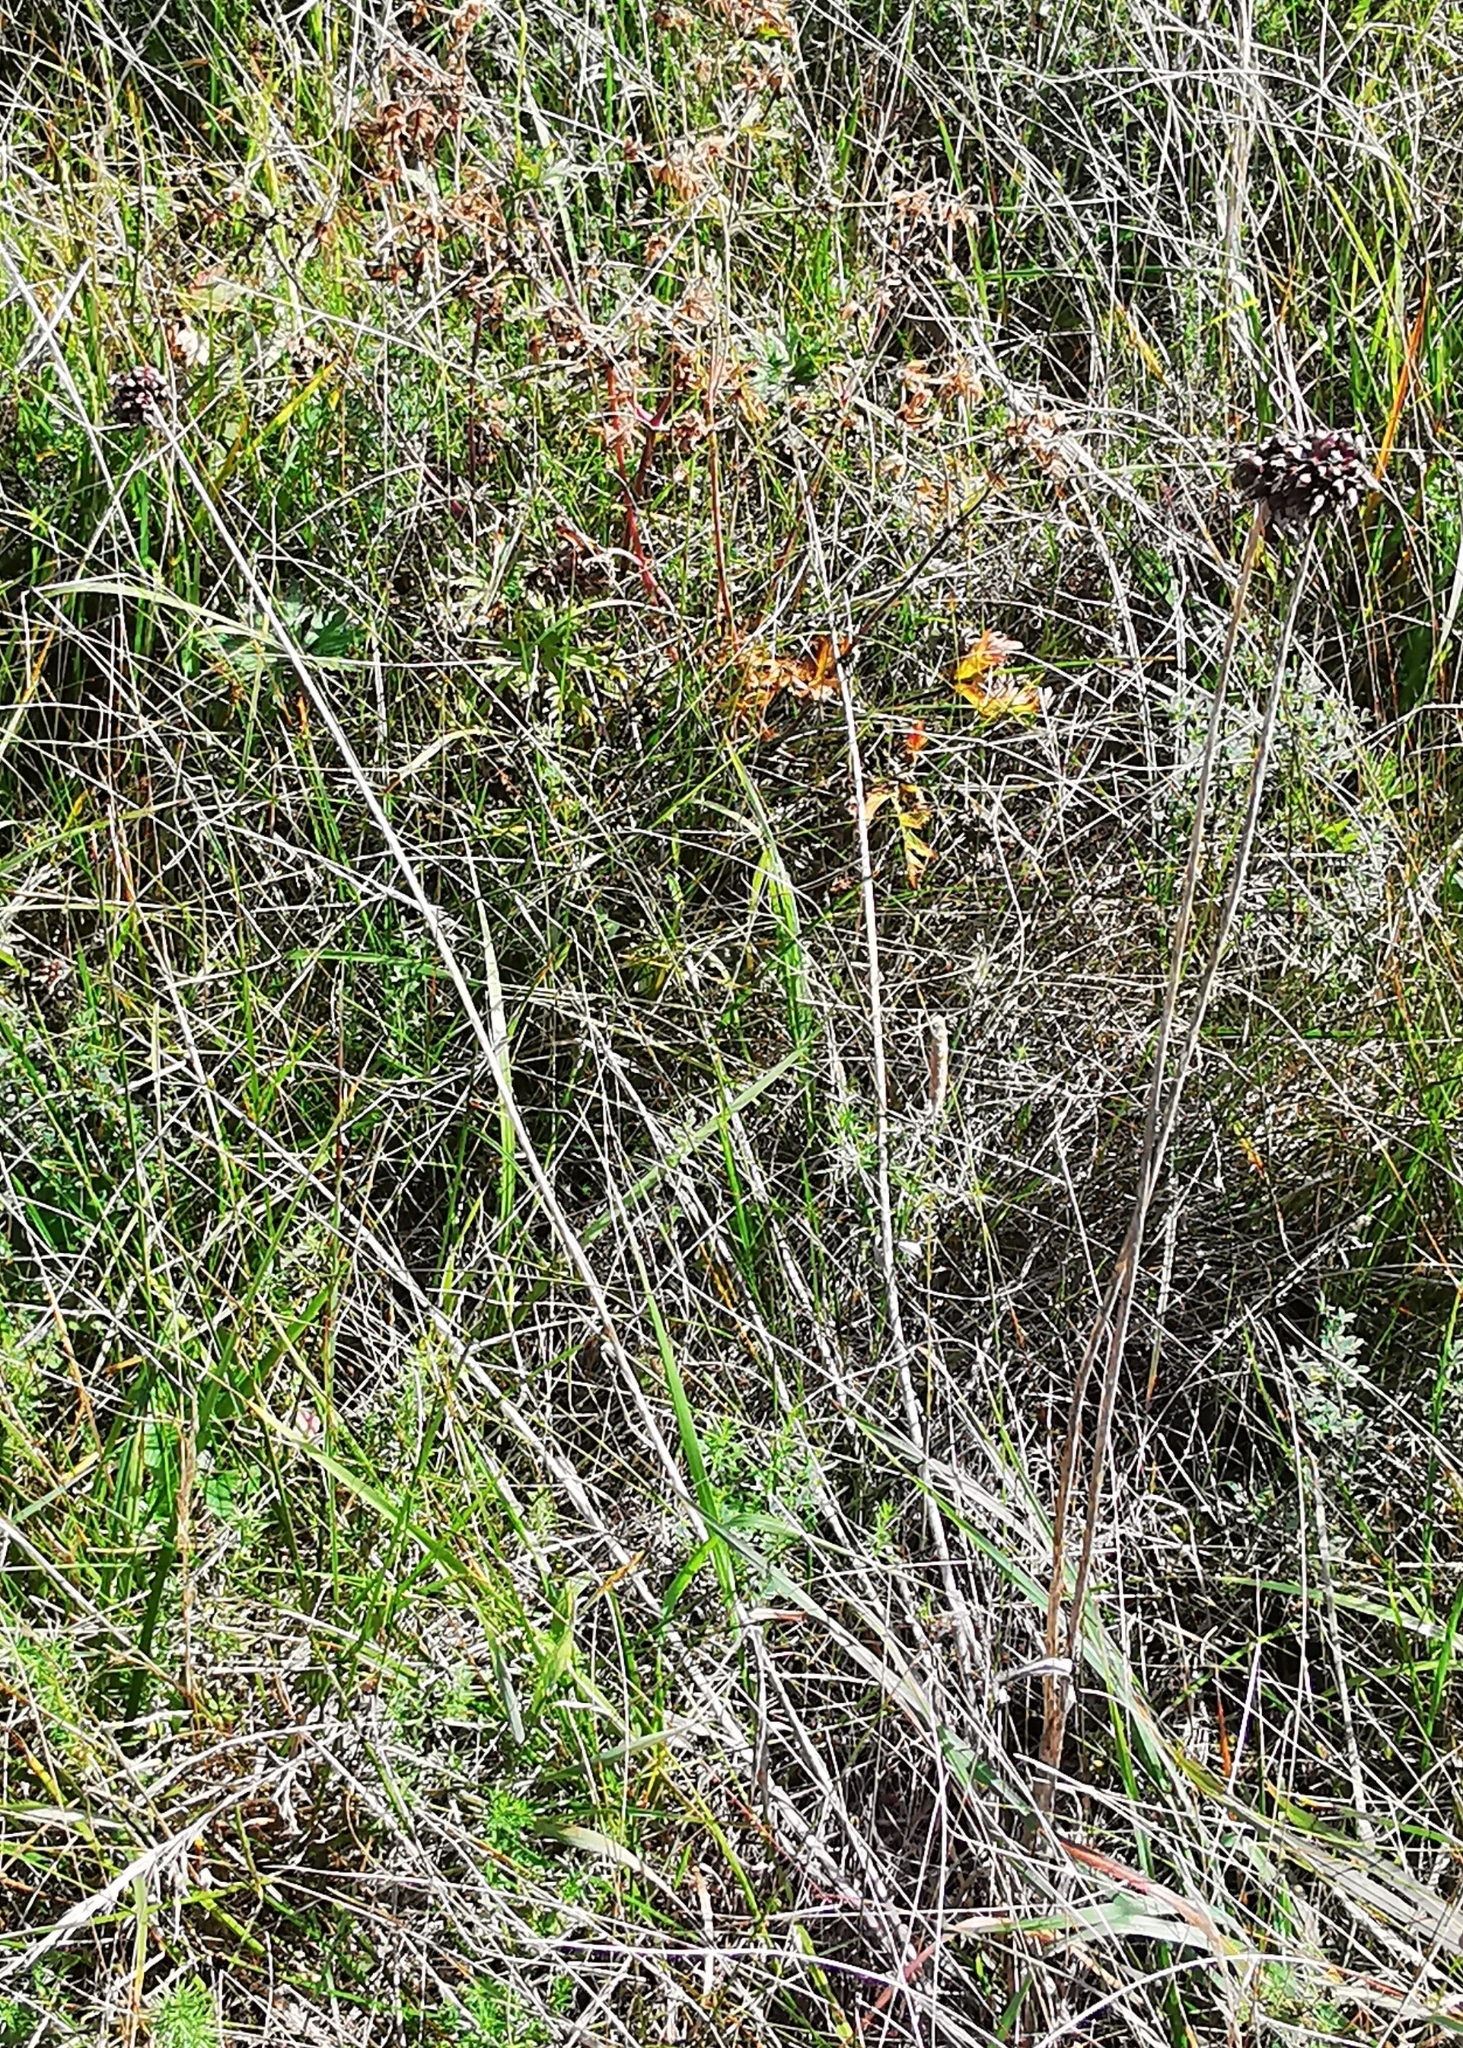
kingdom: Plantae
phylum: Tracheophyta
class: Liliopsida
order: Asparagales
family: Amaryllidaceae
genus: Allium
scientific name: Allium scorodoprasum
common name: Sand leek
